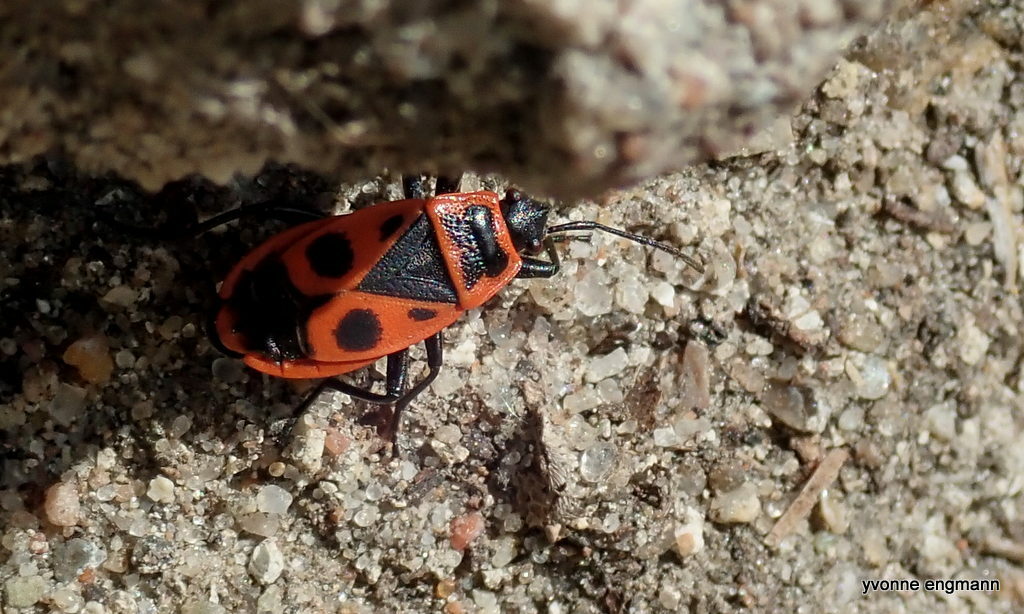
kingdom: Animalia
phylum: Arthropoda
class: Insecta
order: Hemiptera
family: Pyrrhocoridae
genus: Pyrrhocoris
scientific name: Pyrrhocoris apterus
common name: Firebug
